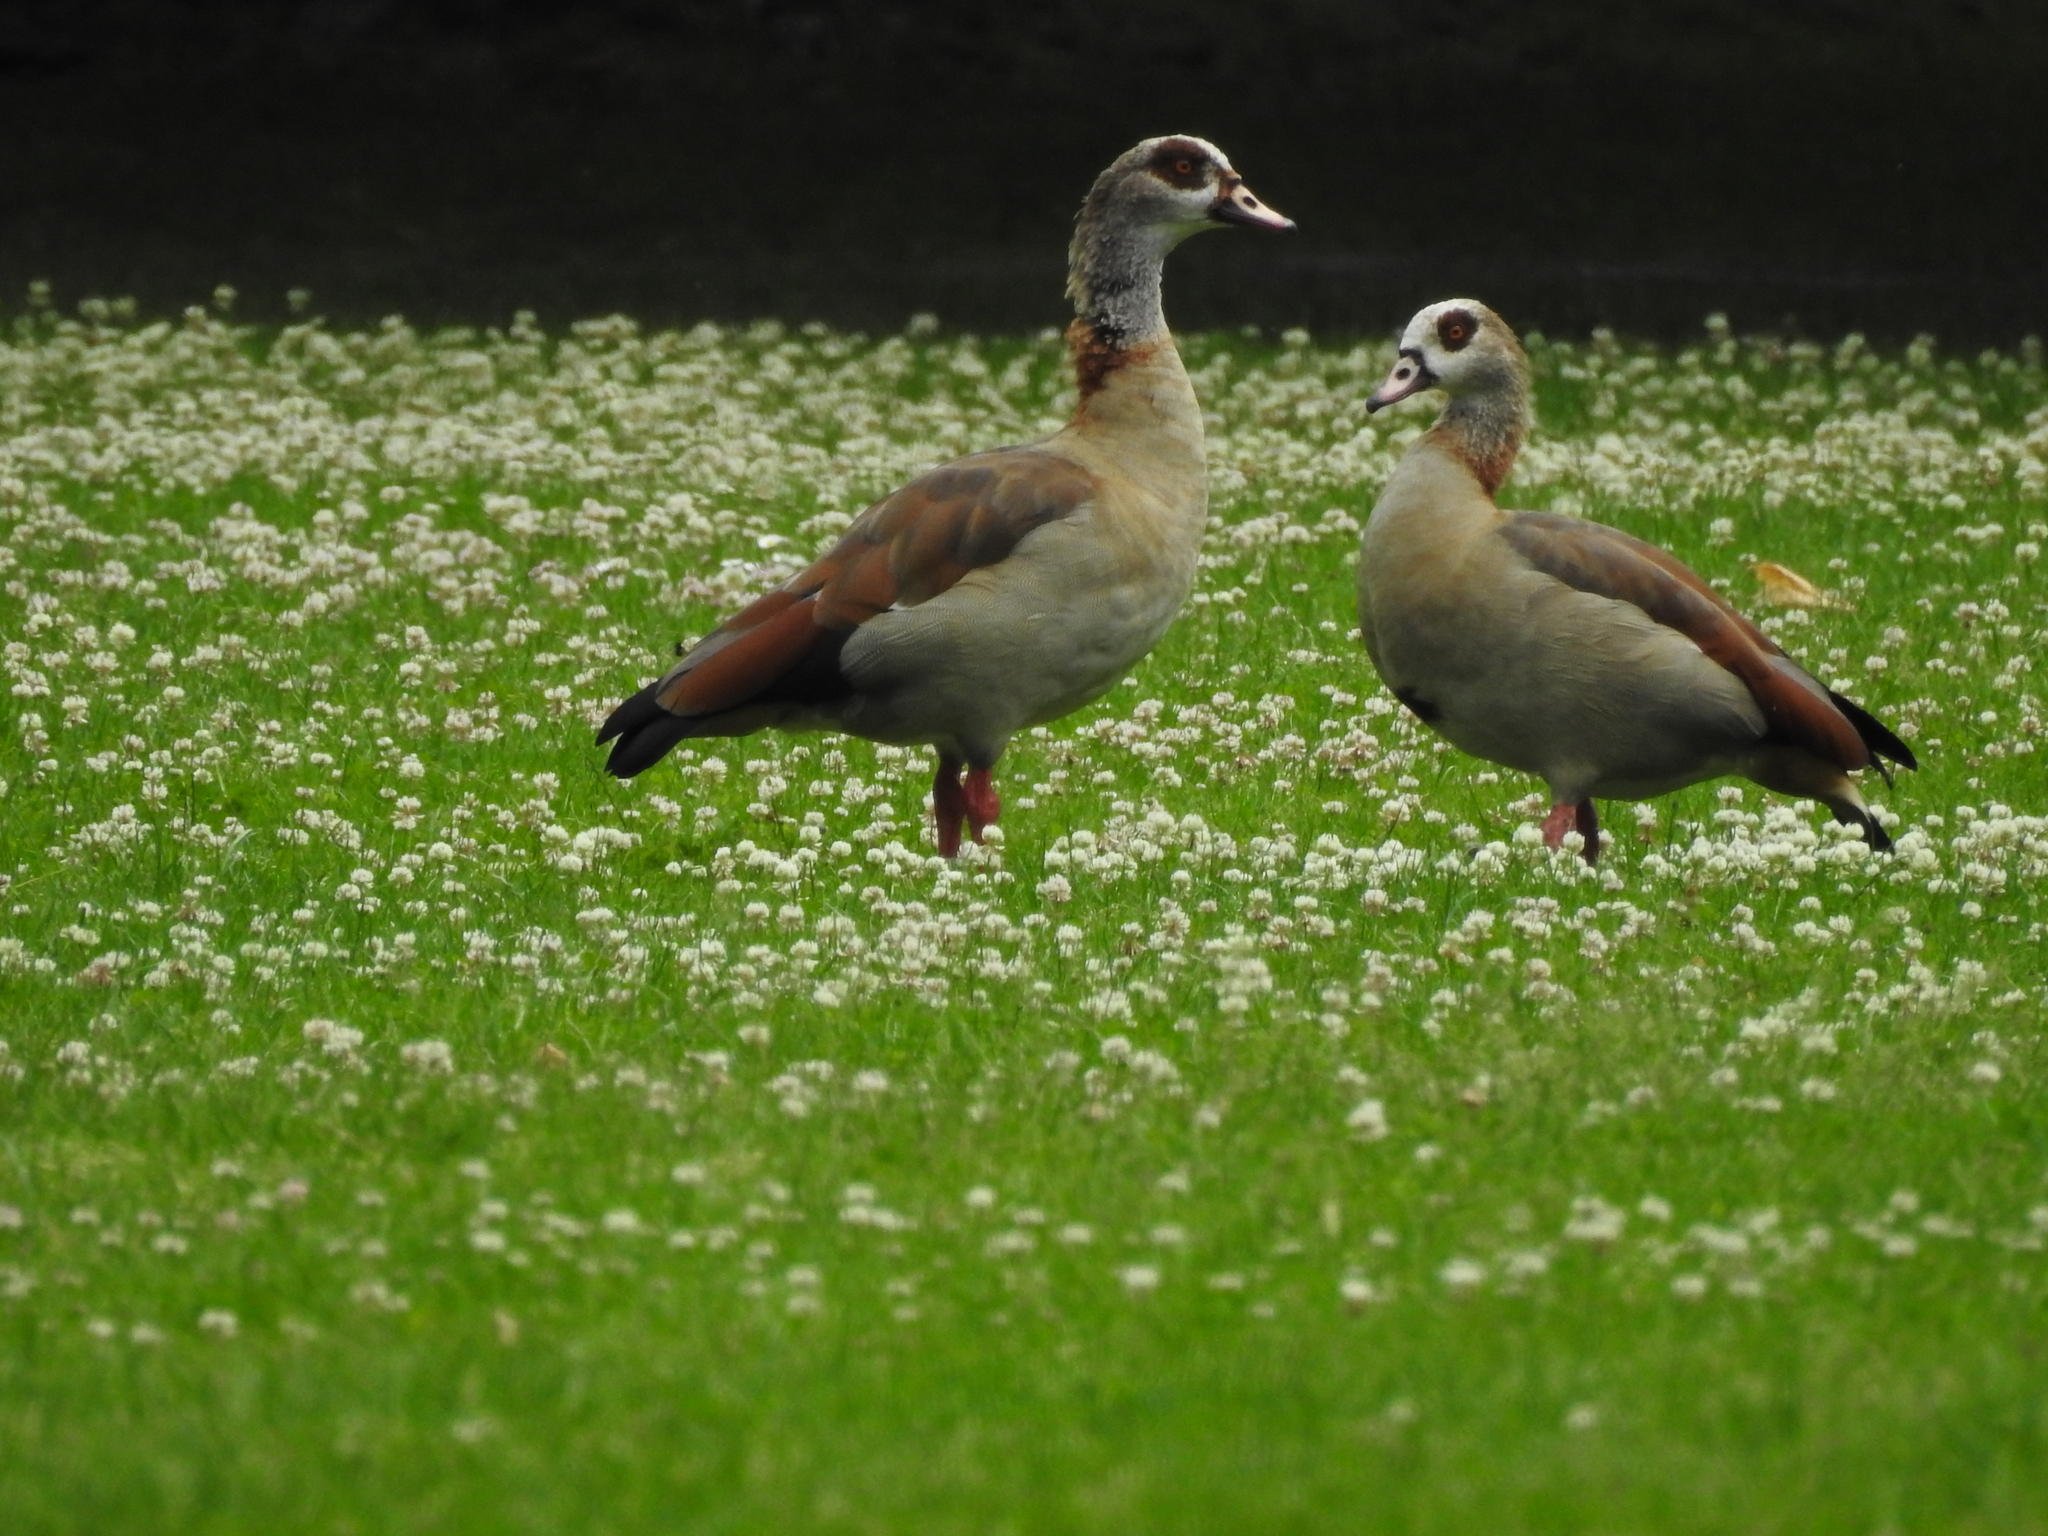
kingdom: Animalia
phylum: Chordata
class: Aves
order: Anseriformes
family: Anatidae
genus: Alopochen
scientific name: Alopochen aegyptiaca
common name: Egyptian goose
